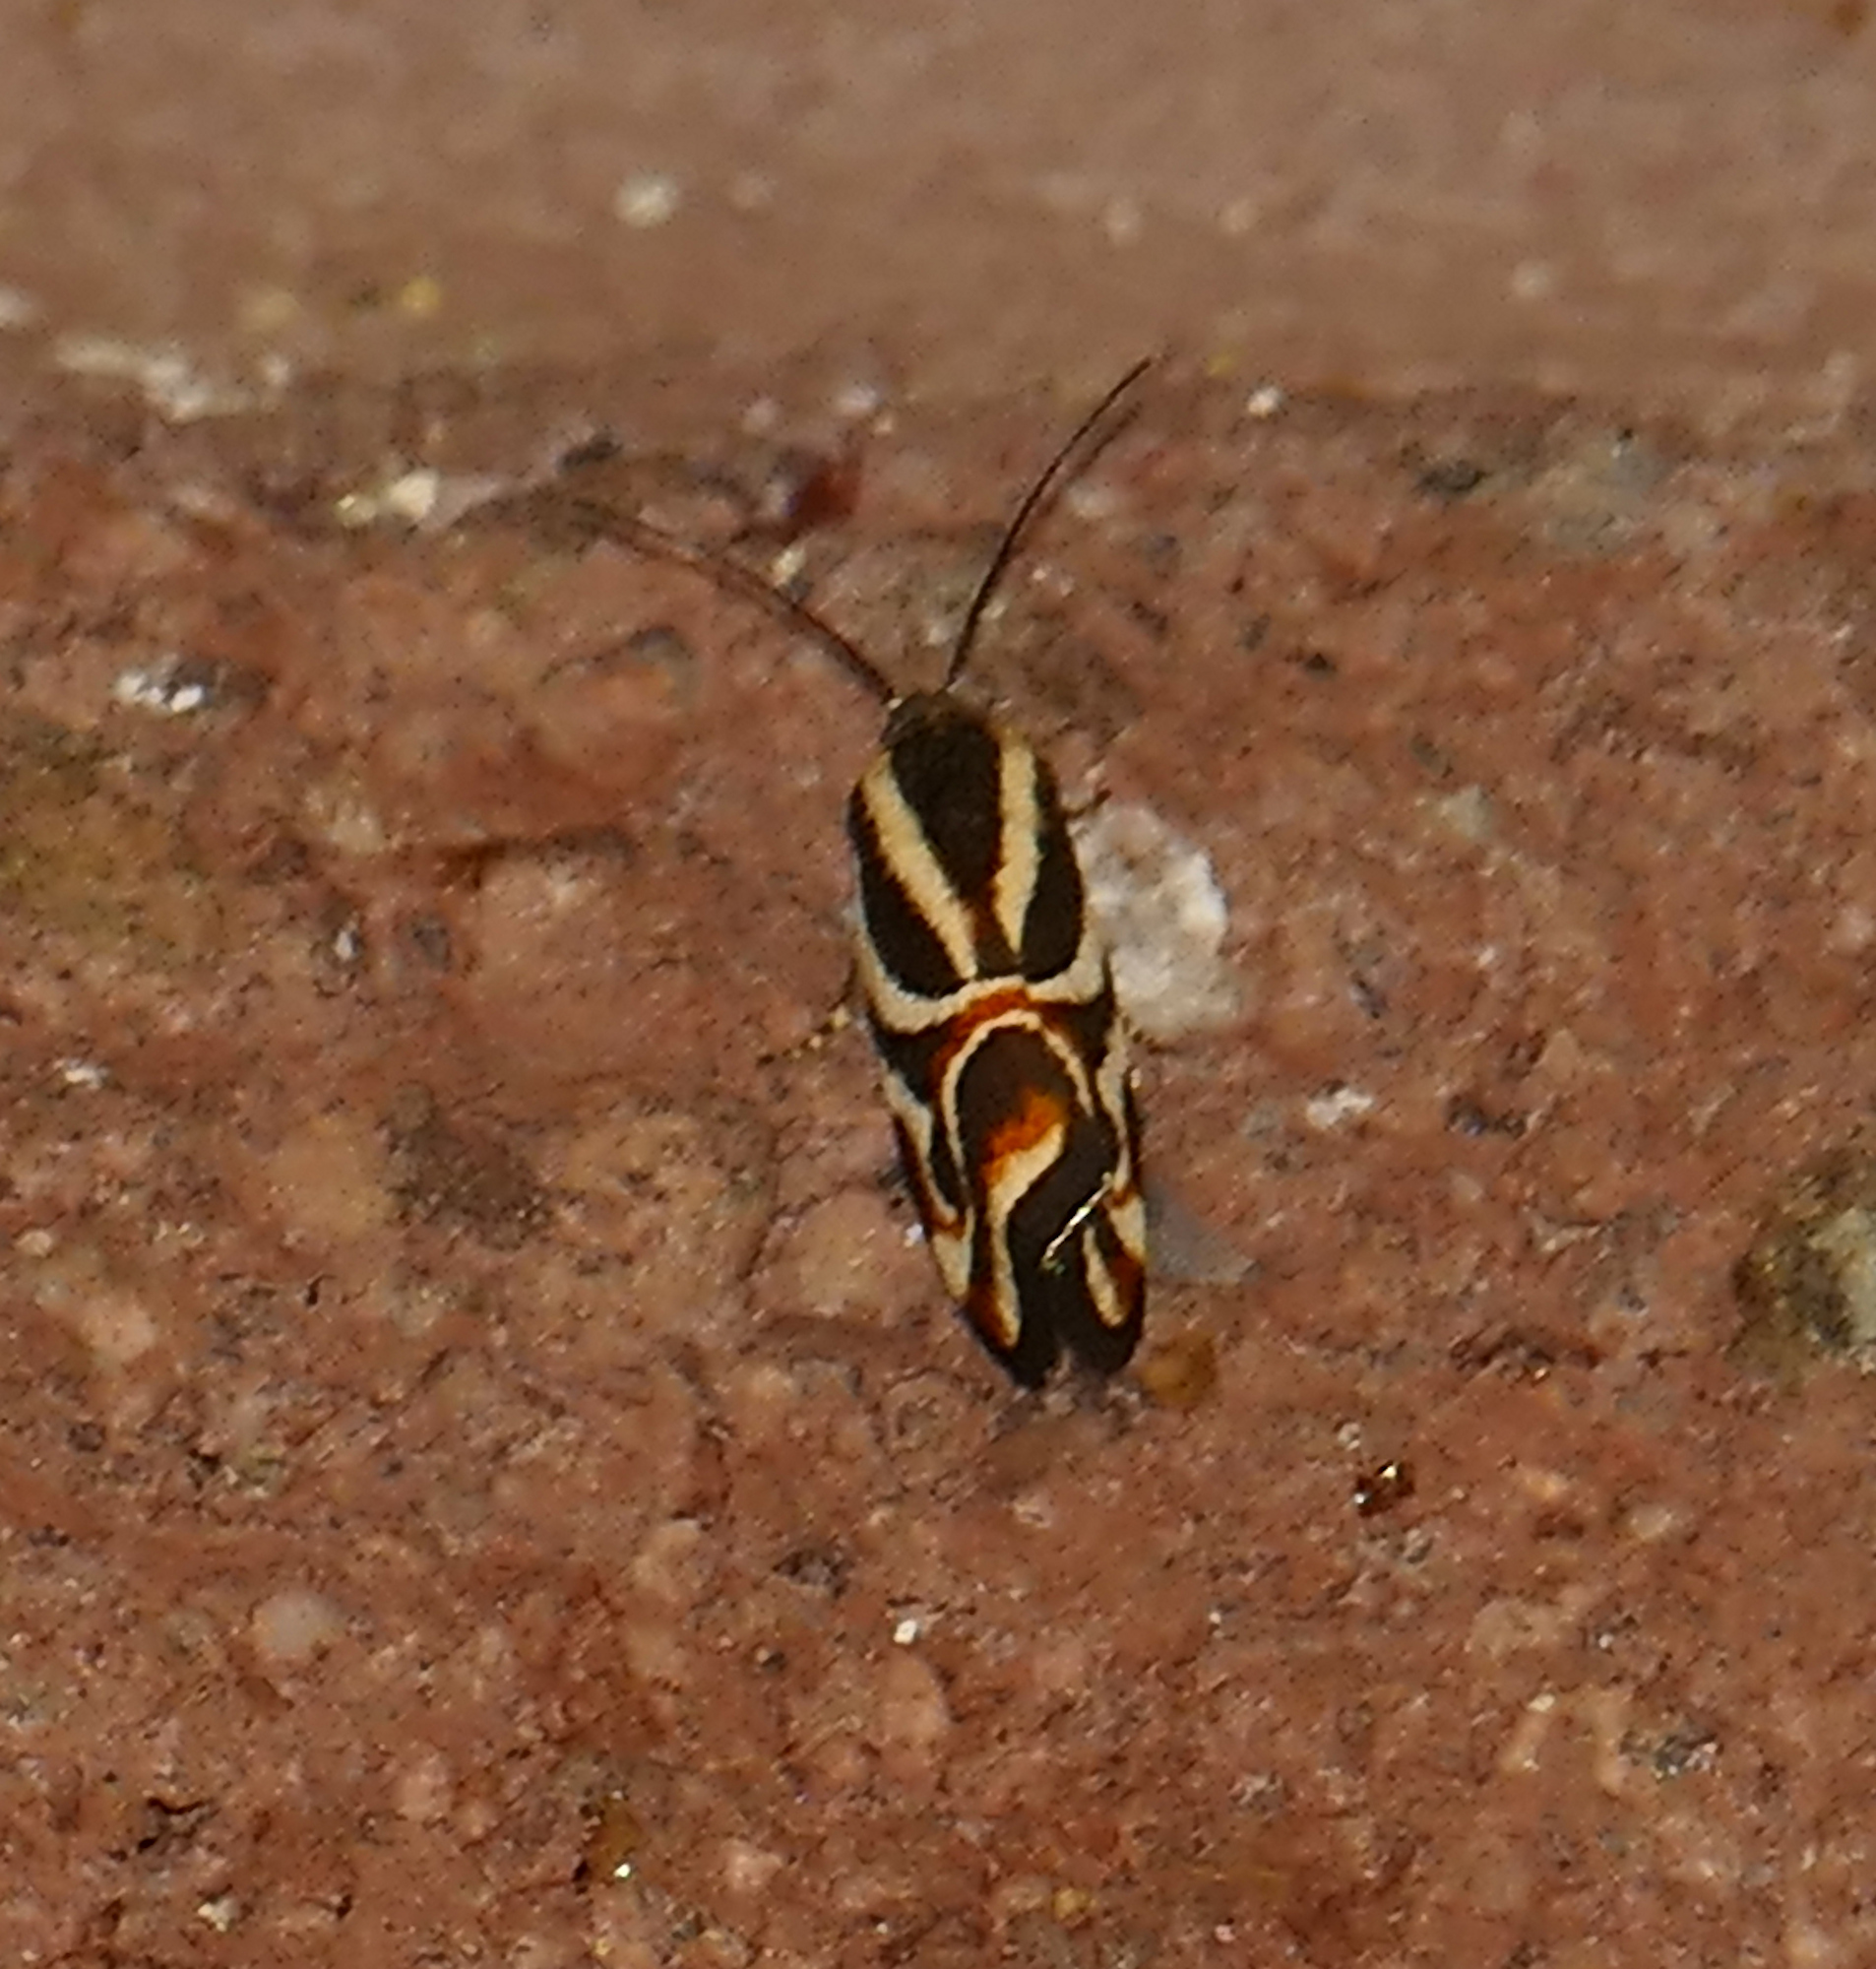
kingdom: Animalia
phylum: Arthropoda
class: Insecta
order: Lepidoptera
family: Noctuidae
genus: Spragueia
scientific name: Spragueia magnifica
